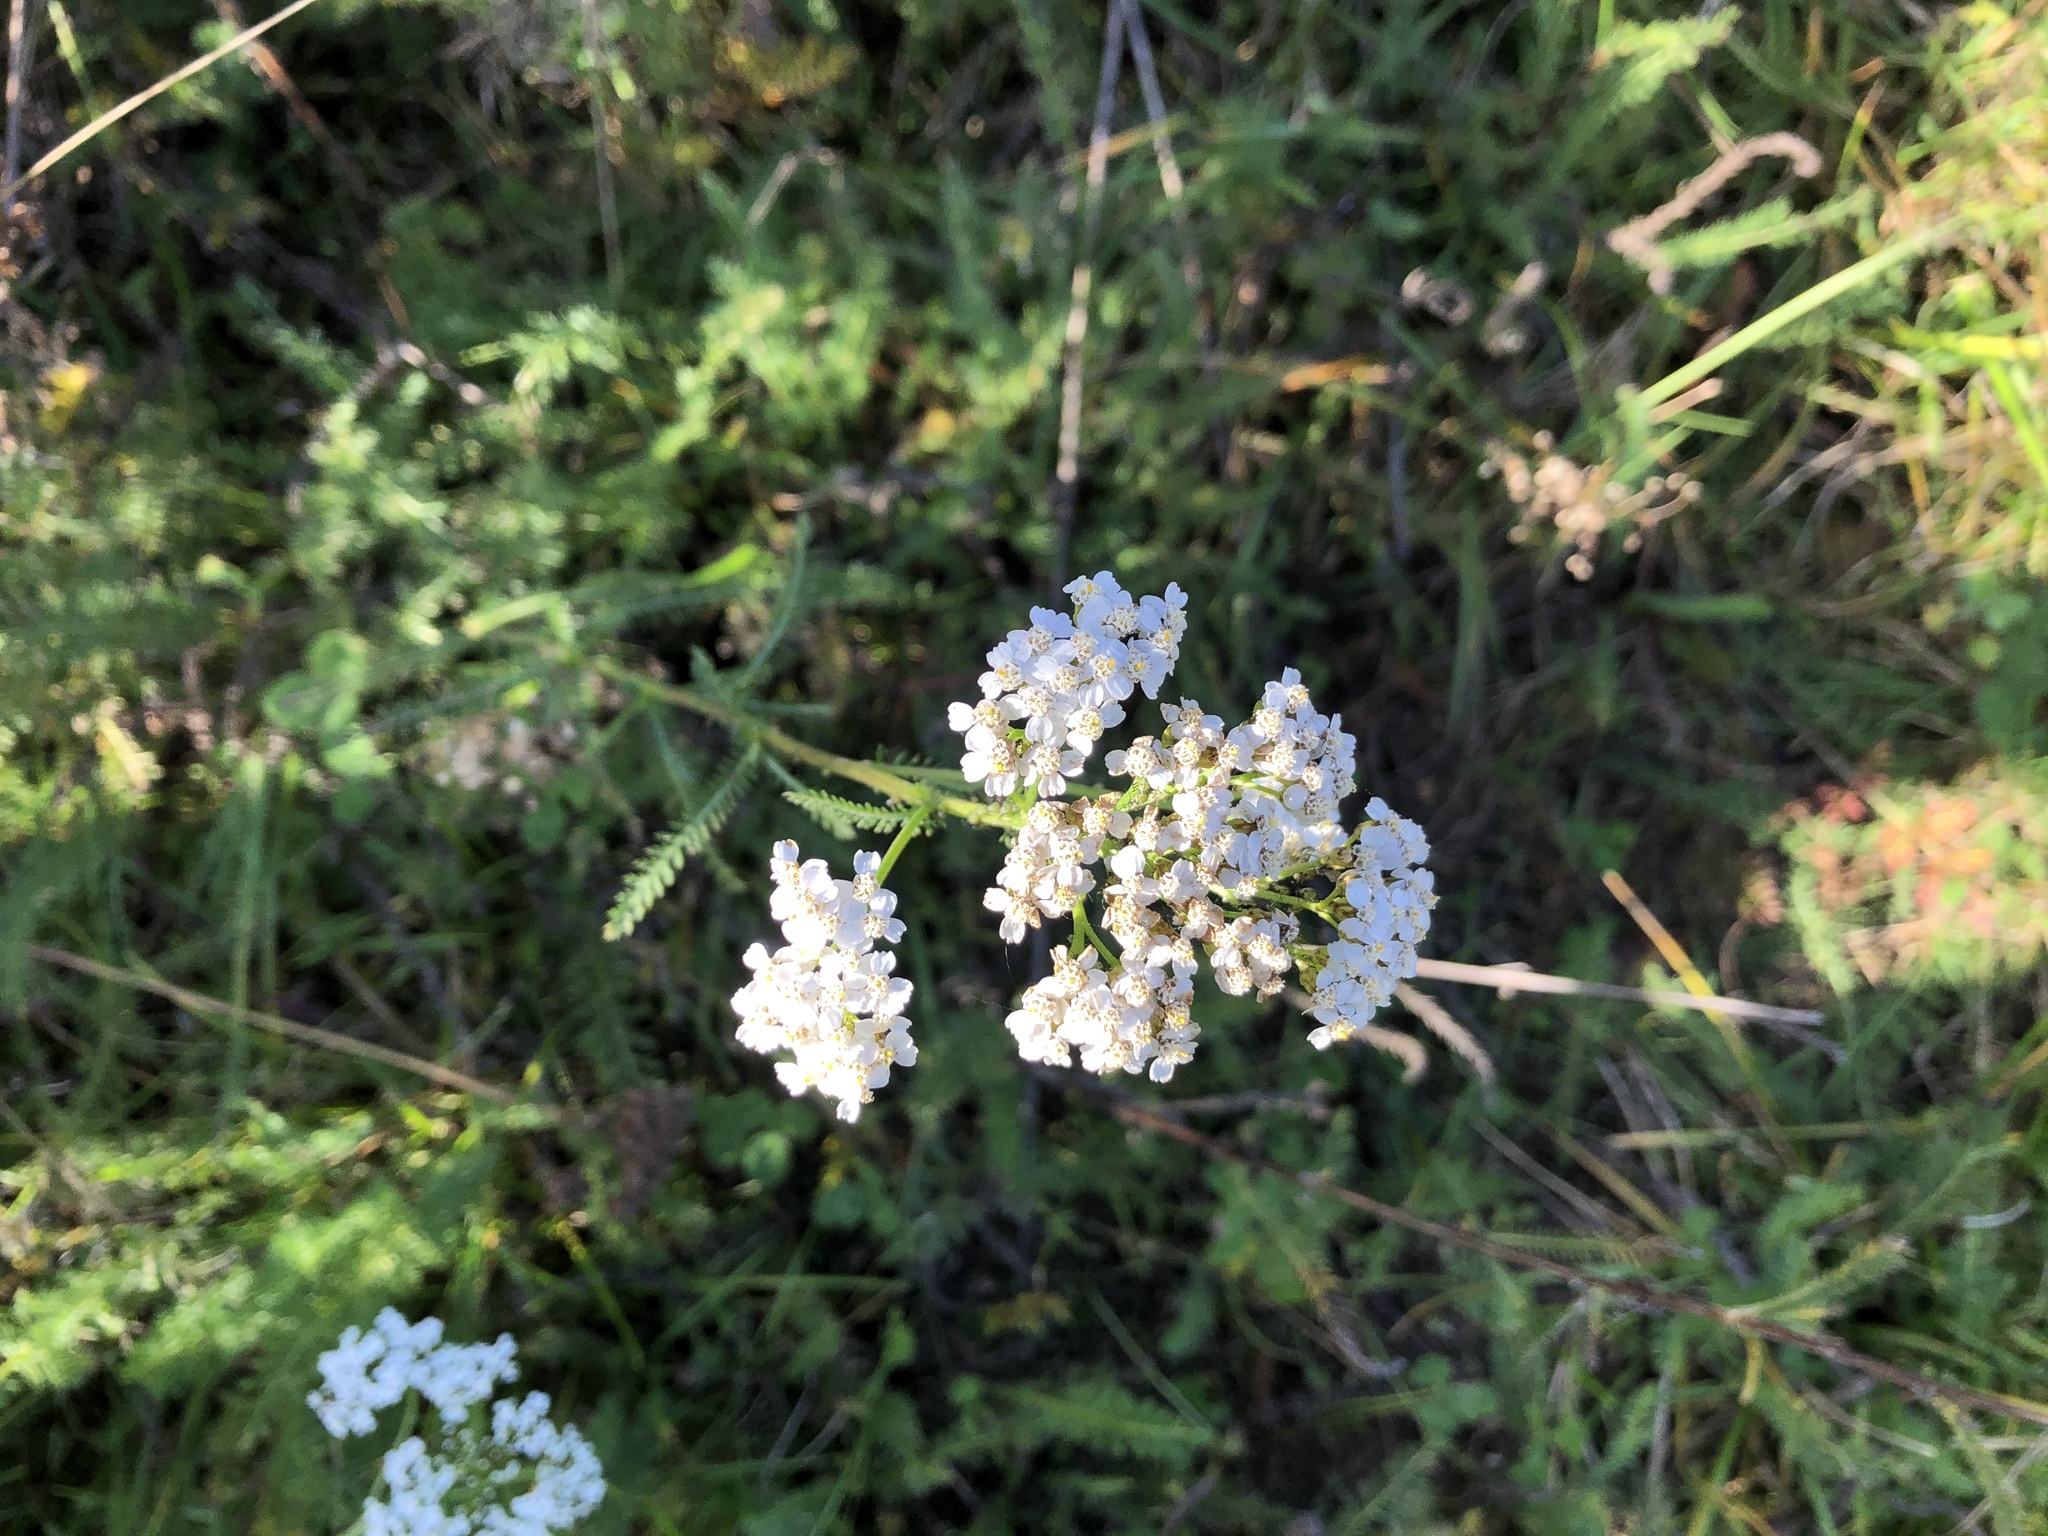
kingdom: Plantae
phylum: Tracheophyta
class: Magnoliopsida
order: Asterales
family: Asteraceae
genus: Achillea
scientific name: Achillea millefolium
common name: Yarrow
